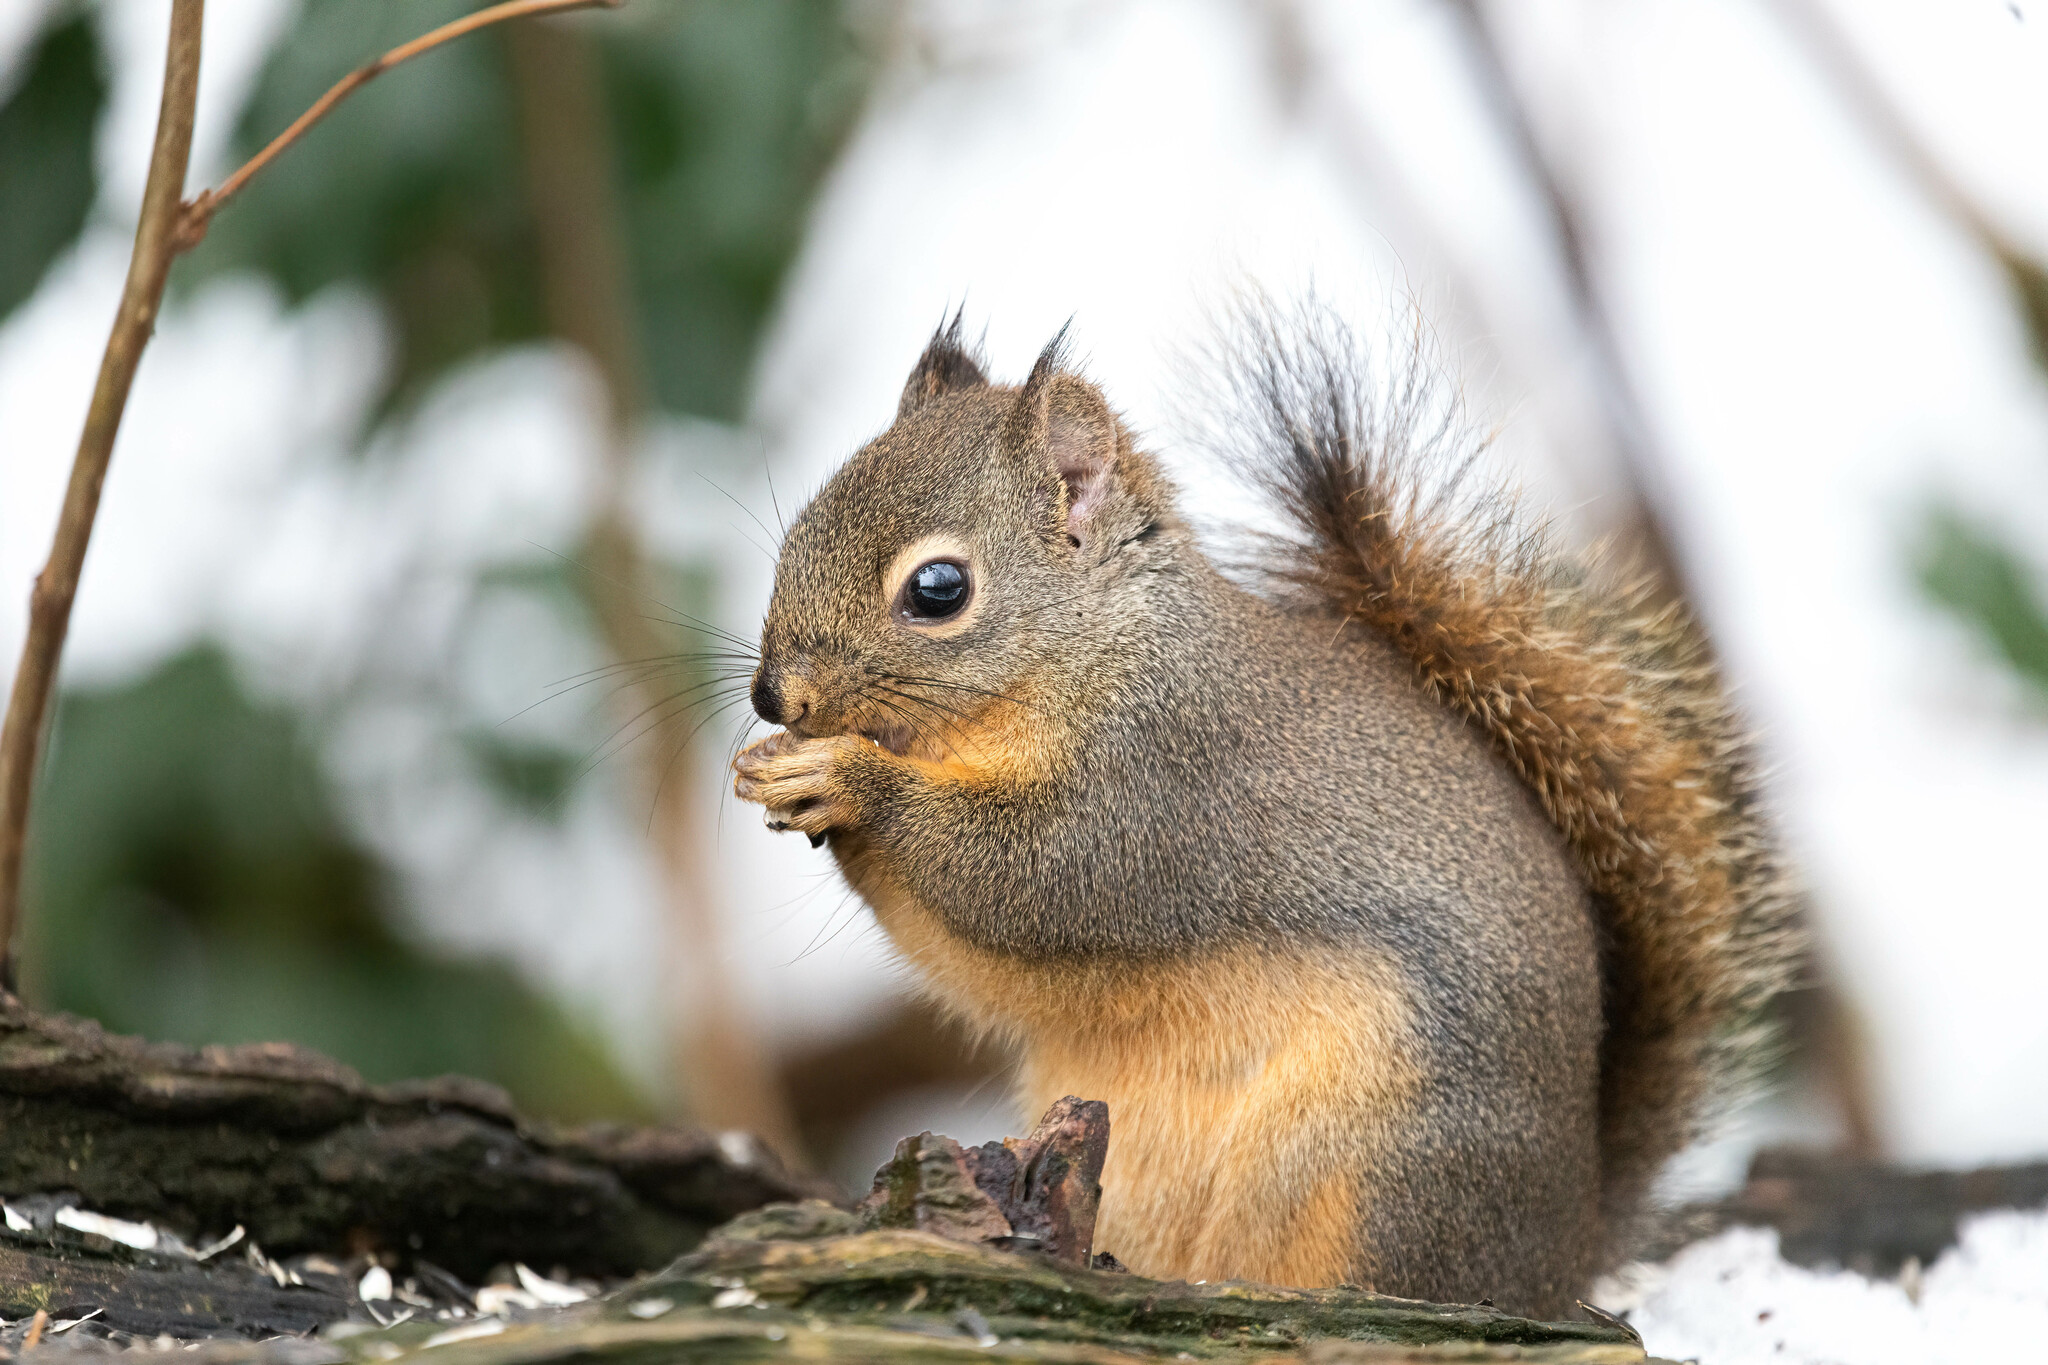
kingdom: Animalia
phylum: Chordata
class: Mammalia
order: Rodentia
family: Sciuridae
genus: Tamiasciurus
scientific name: Tamiasciurus douglasii
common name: Douglas's squirrel
